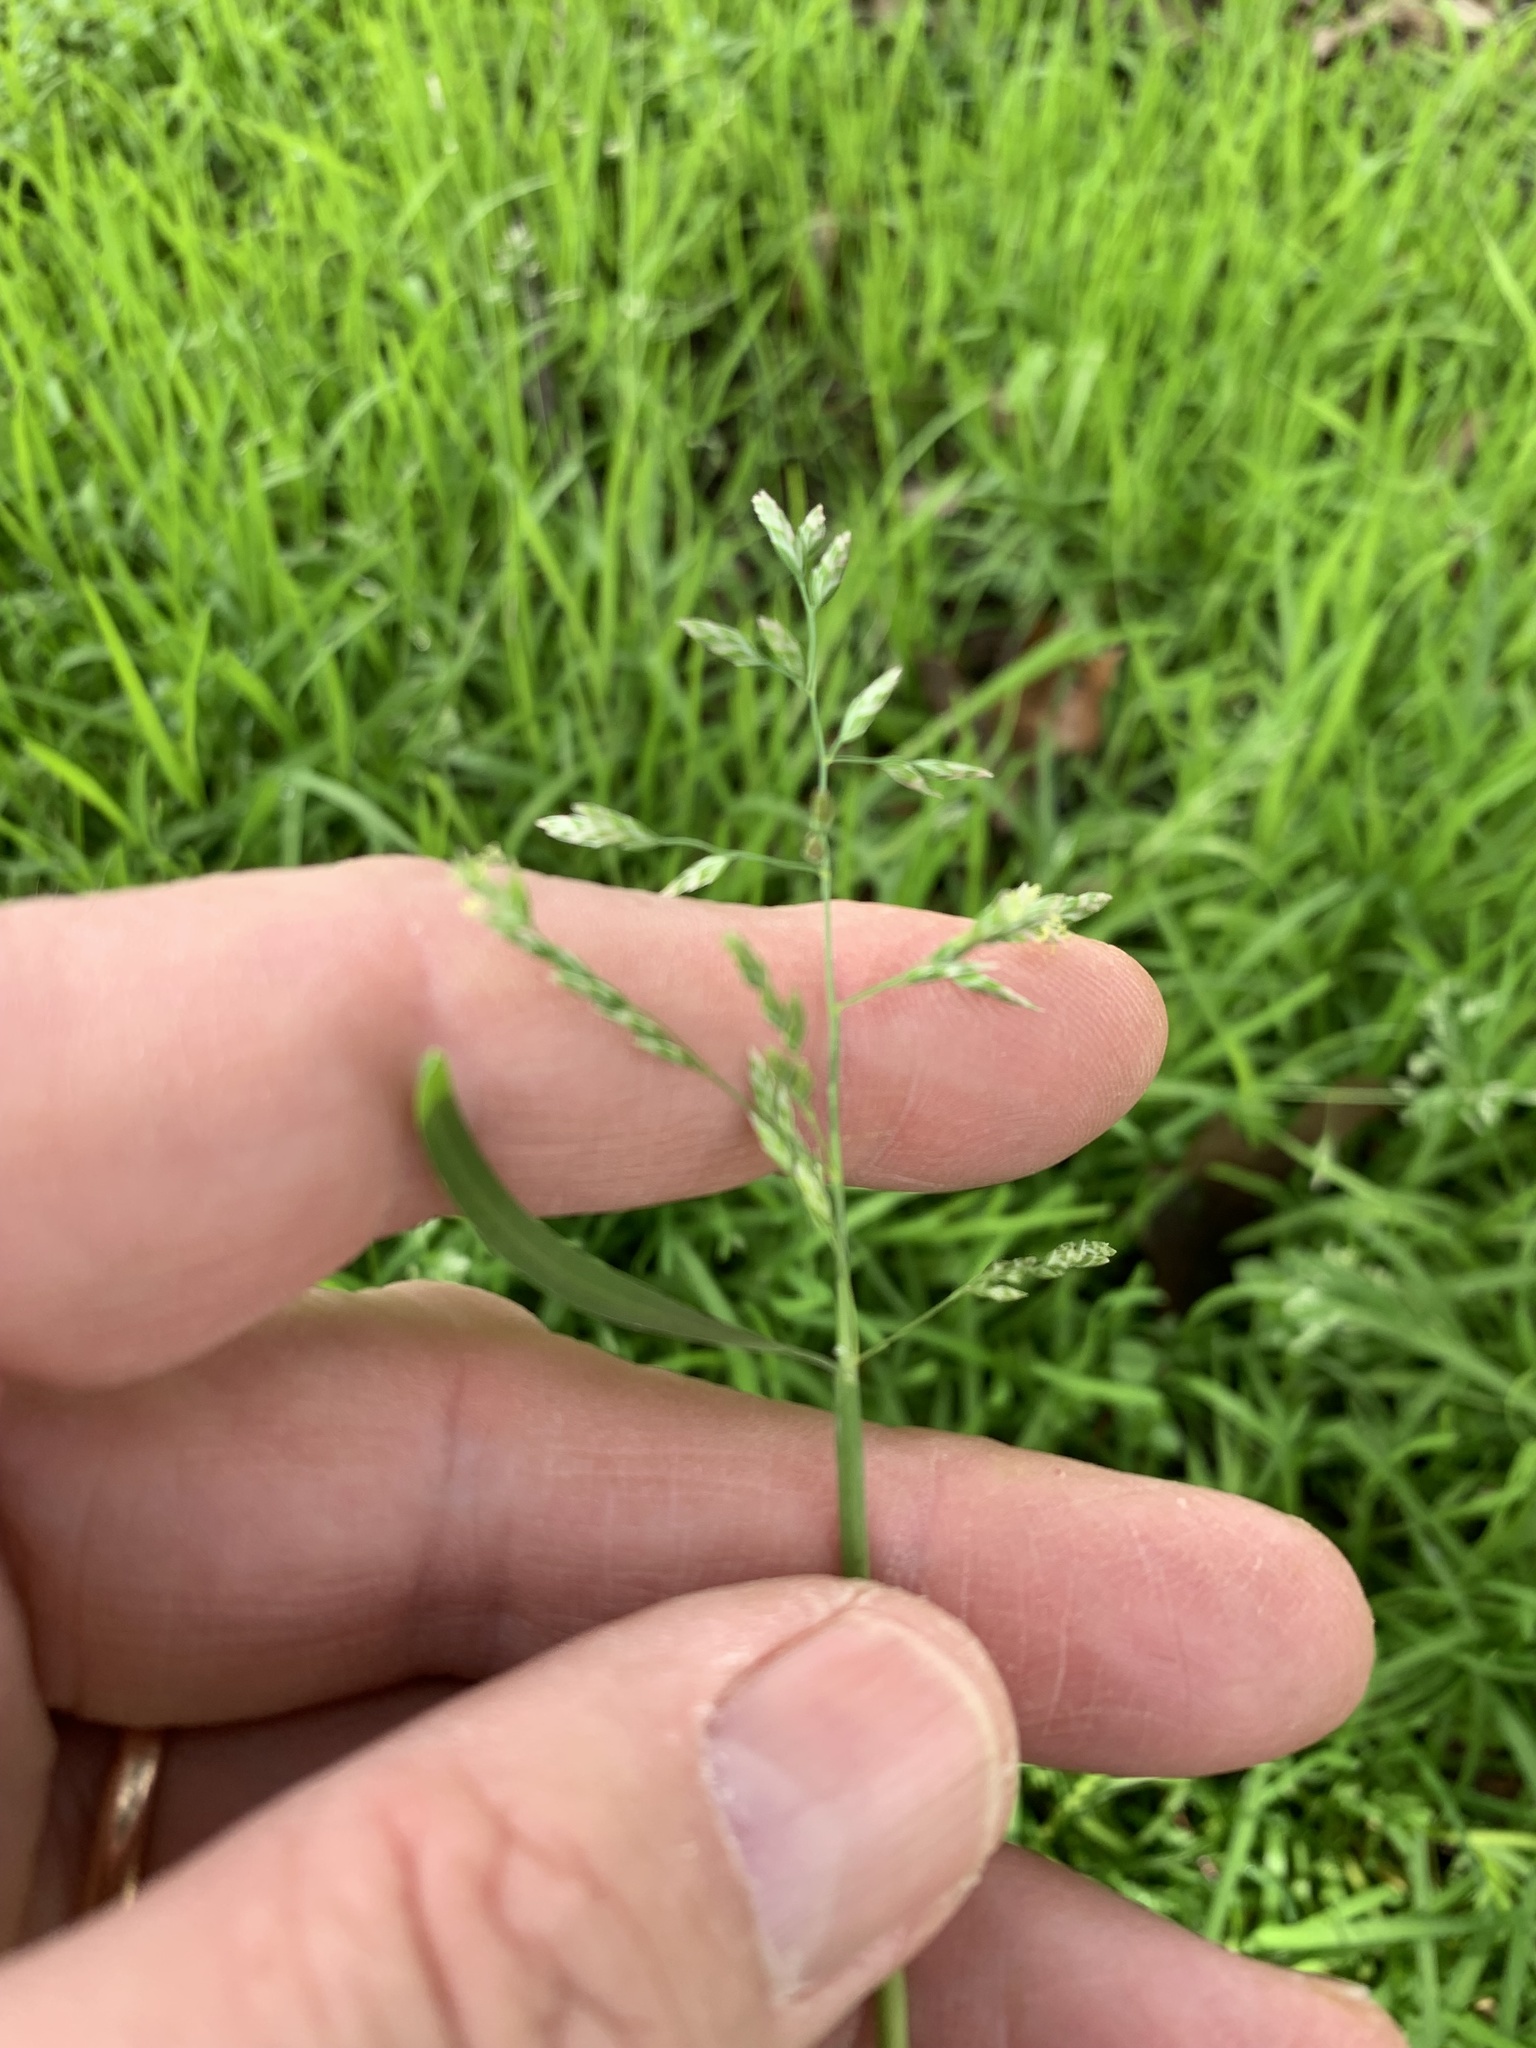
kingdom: Plantae
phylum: Tracheophyta
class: Liliopsida
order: Poales
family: Poaceae
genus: Poa
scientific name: Poa annua
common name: Annual bluegrass
